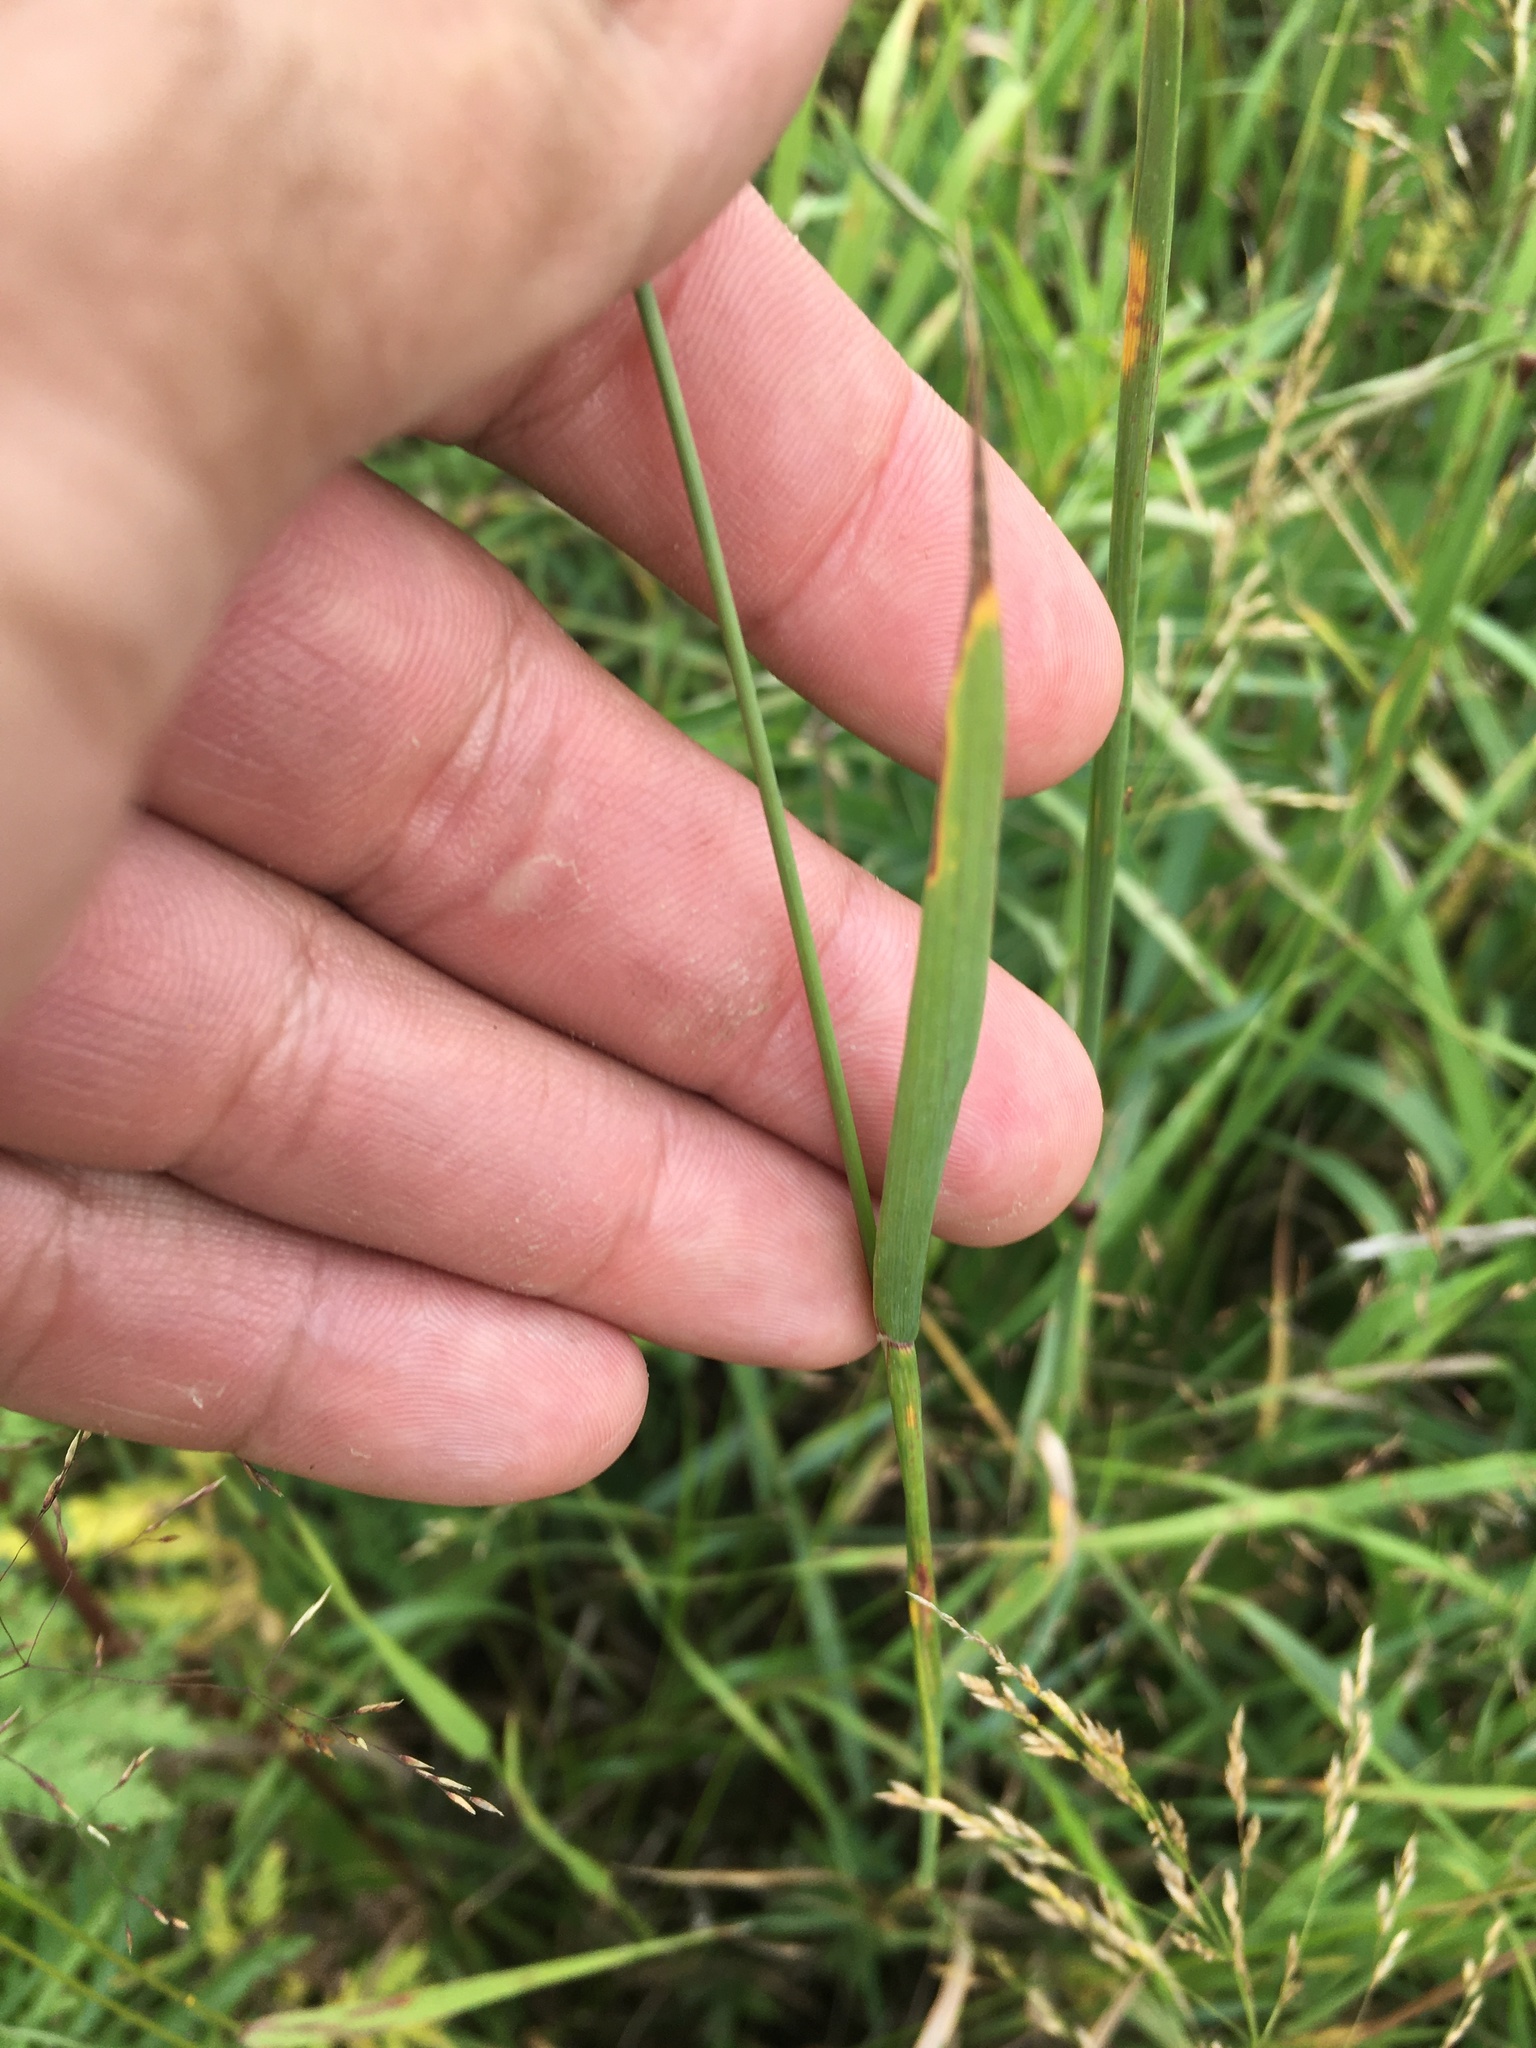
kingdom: Plantae
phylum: Tracheophyta
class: Liliopsida
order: Poales
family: Poaceae
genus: Phleum
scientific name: Phleum pratense
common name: Timothy grass
